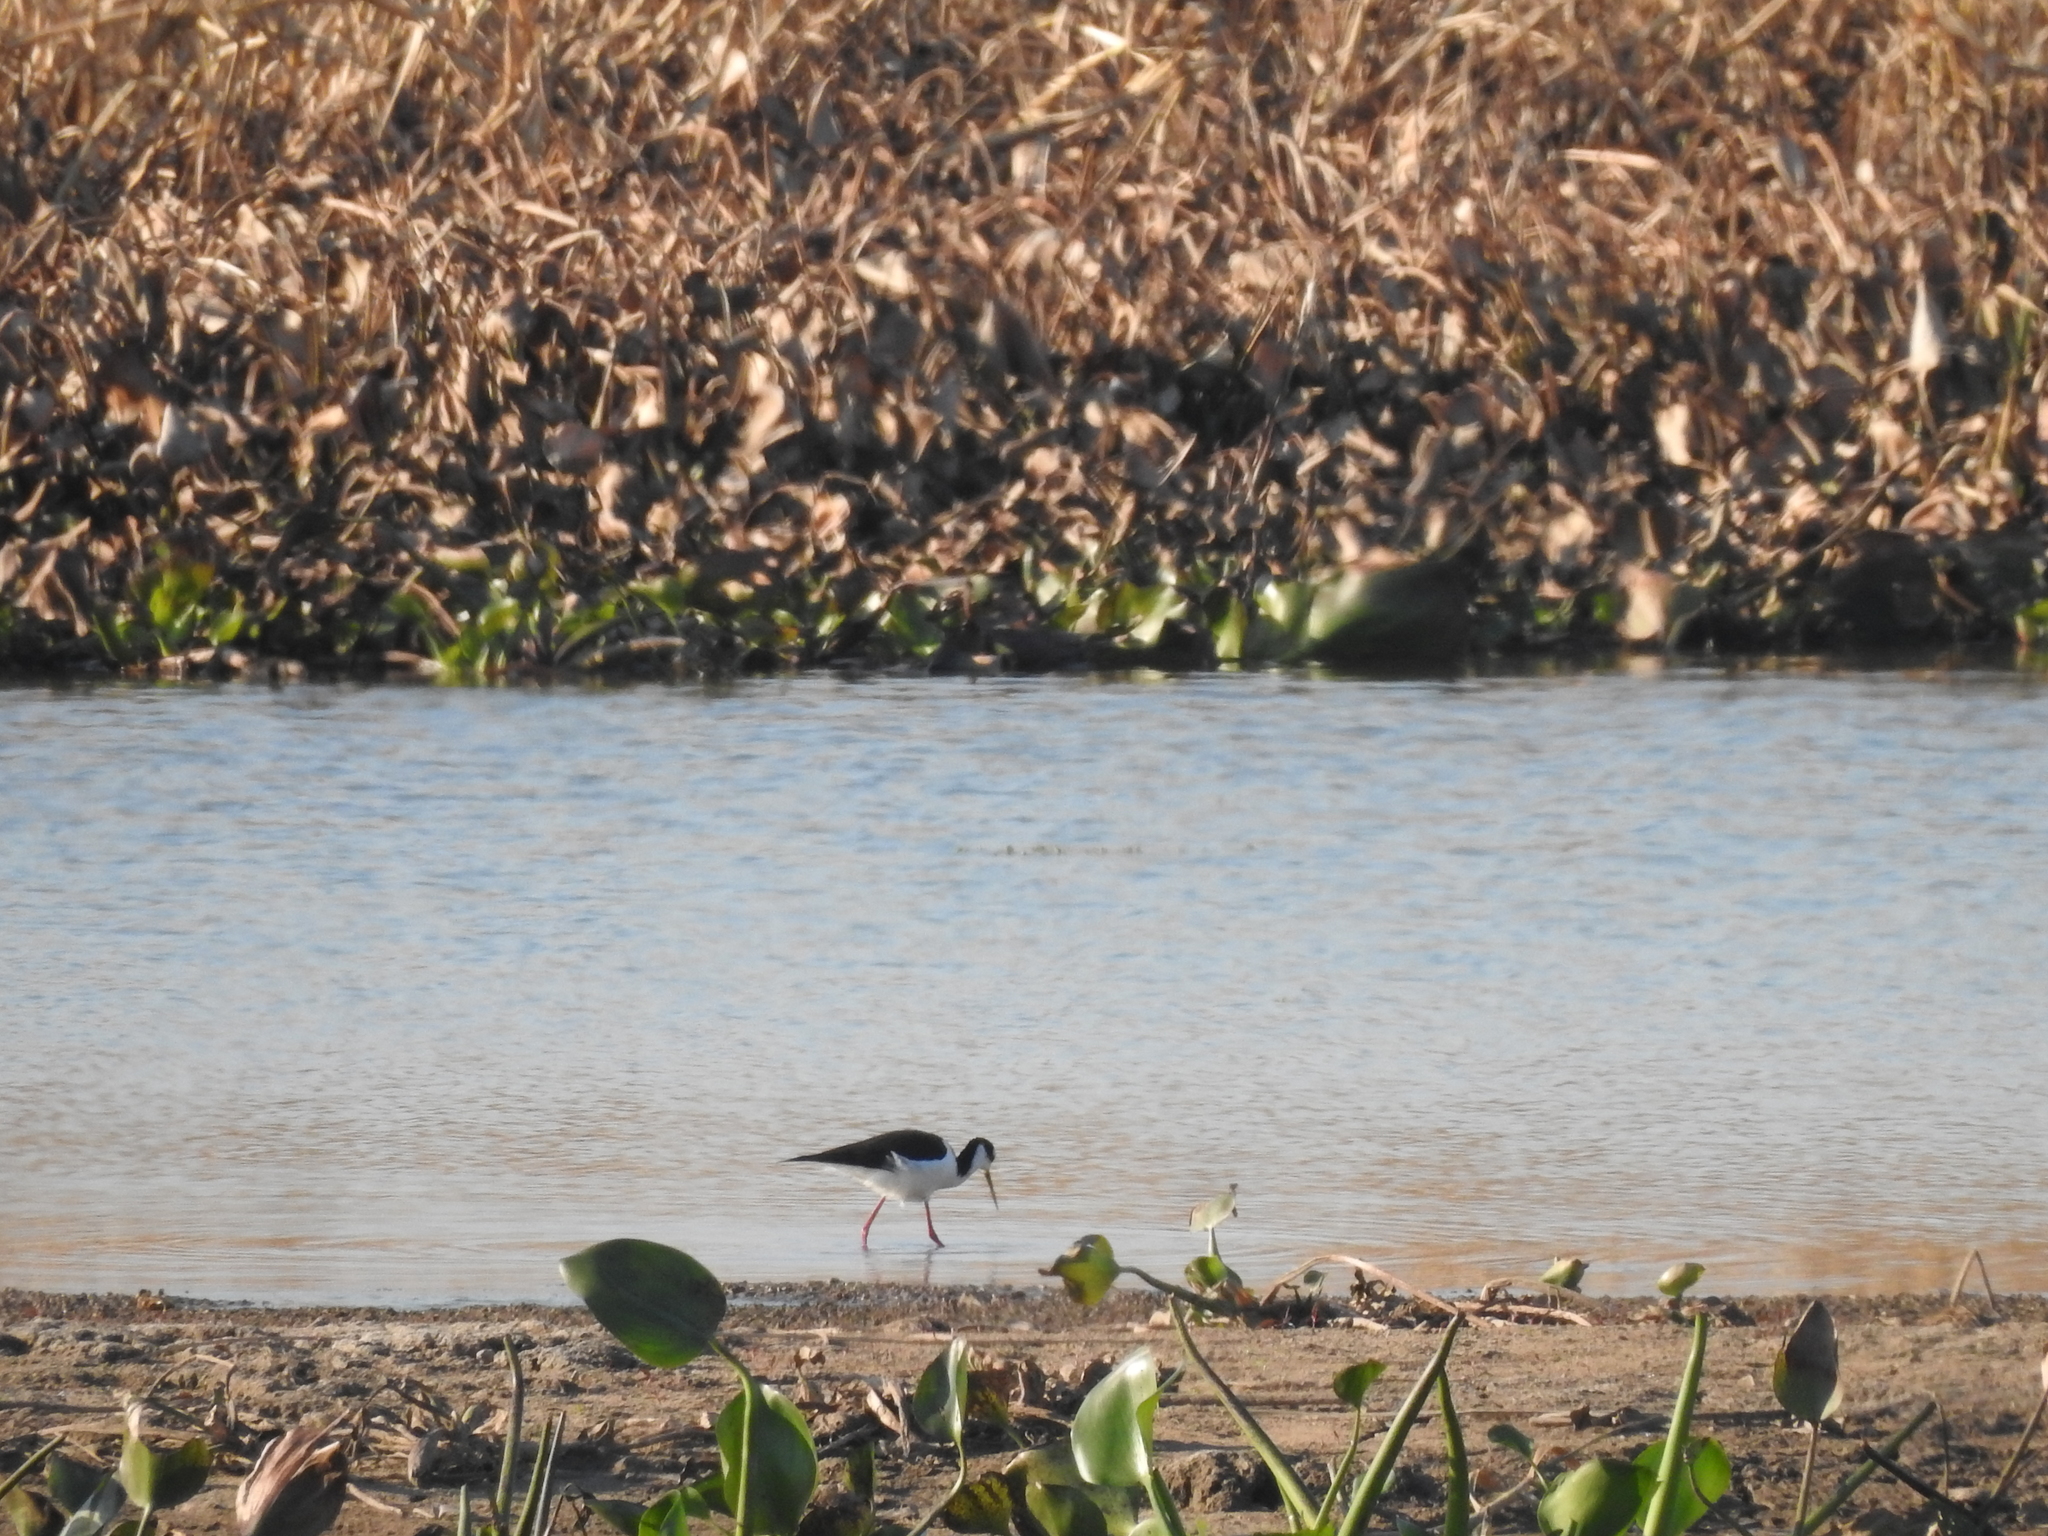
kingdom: Animalia
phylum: Chordata
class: Aves
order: Charadriiformes
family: Recurvirostridae
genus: Himantopus
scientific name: Himantopus mexicanus
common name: Black-necked stilt
